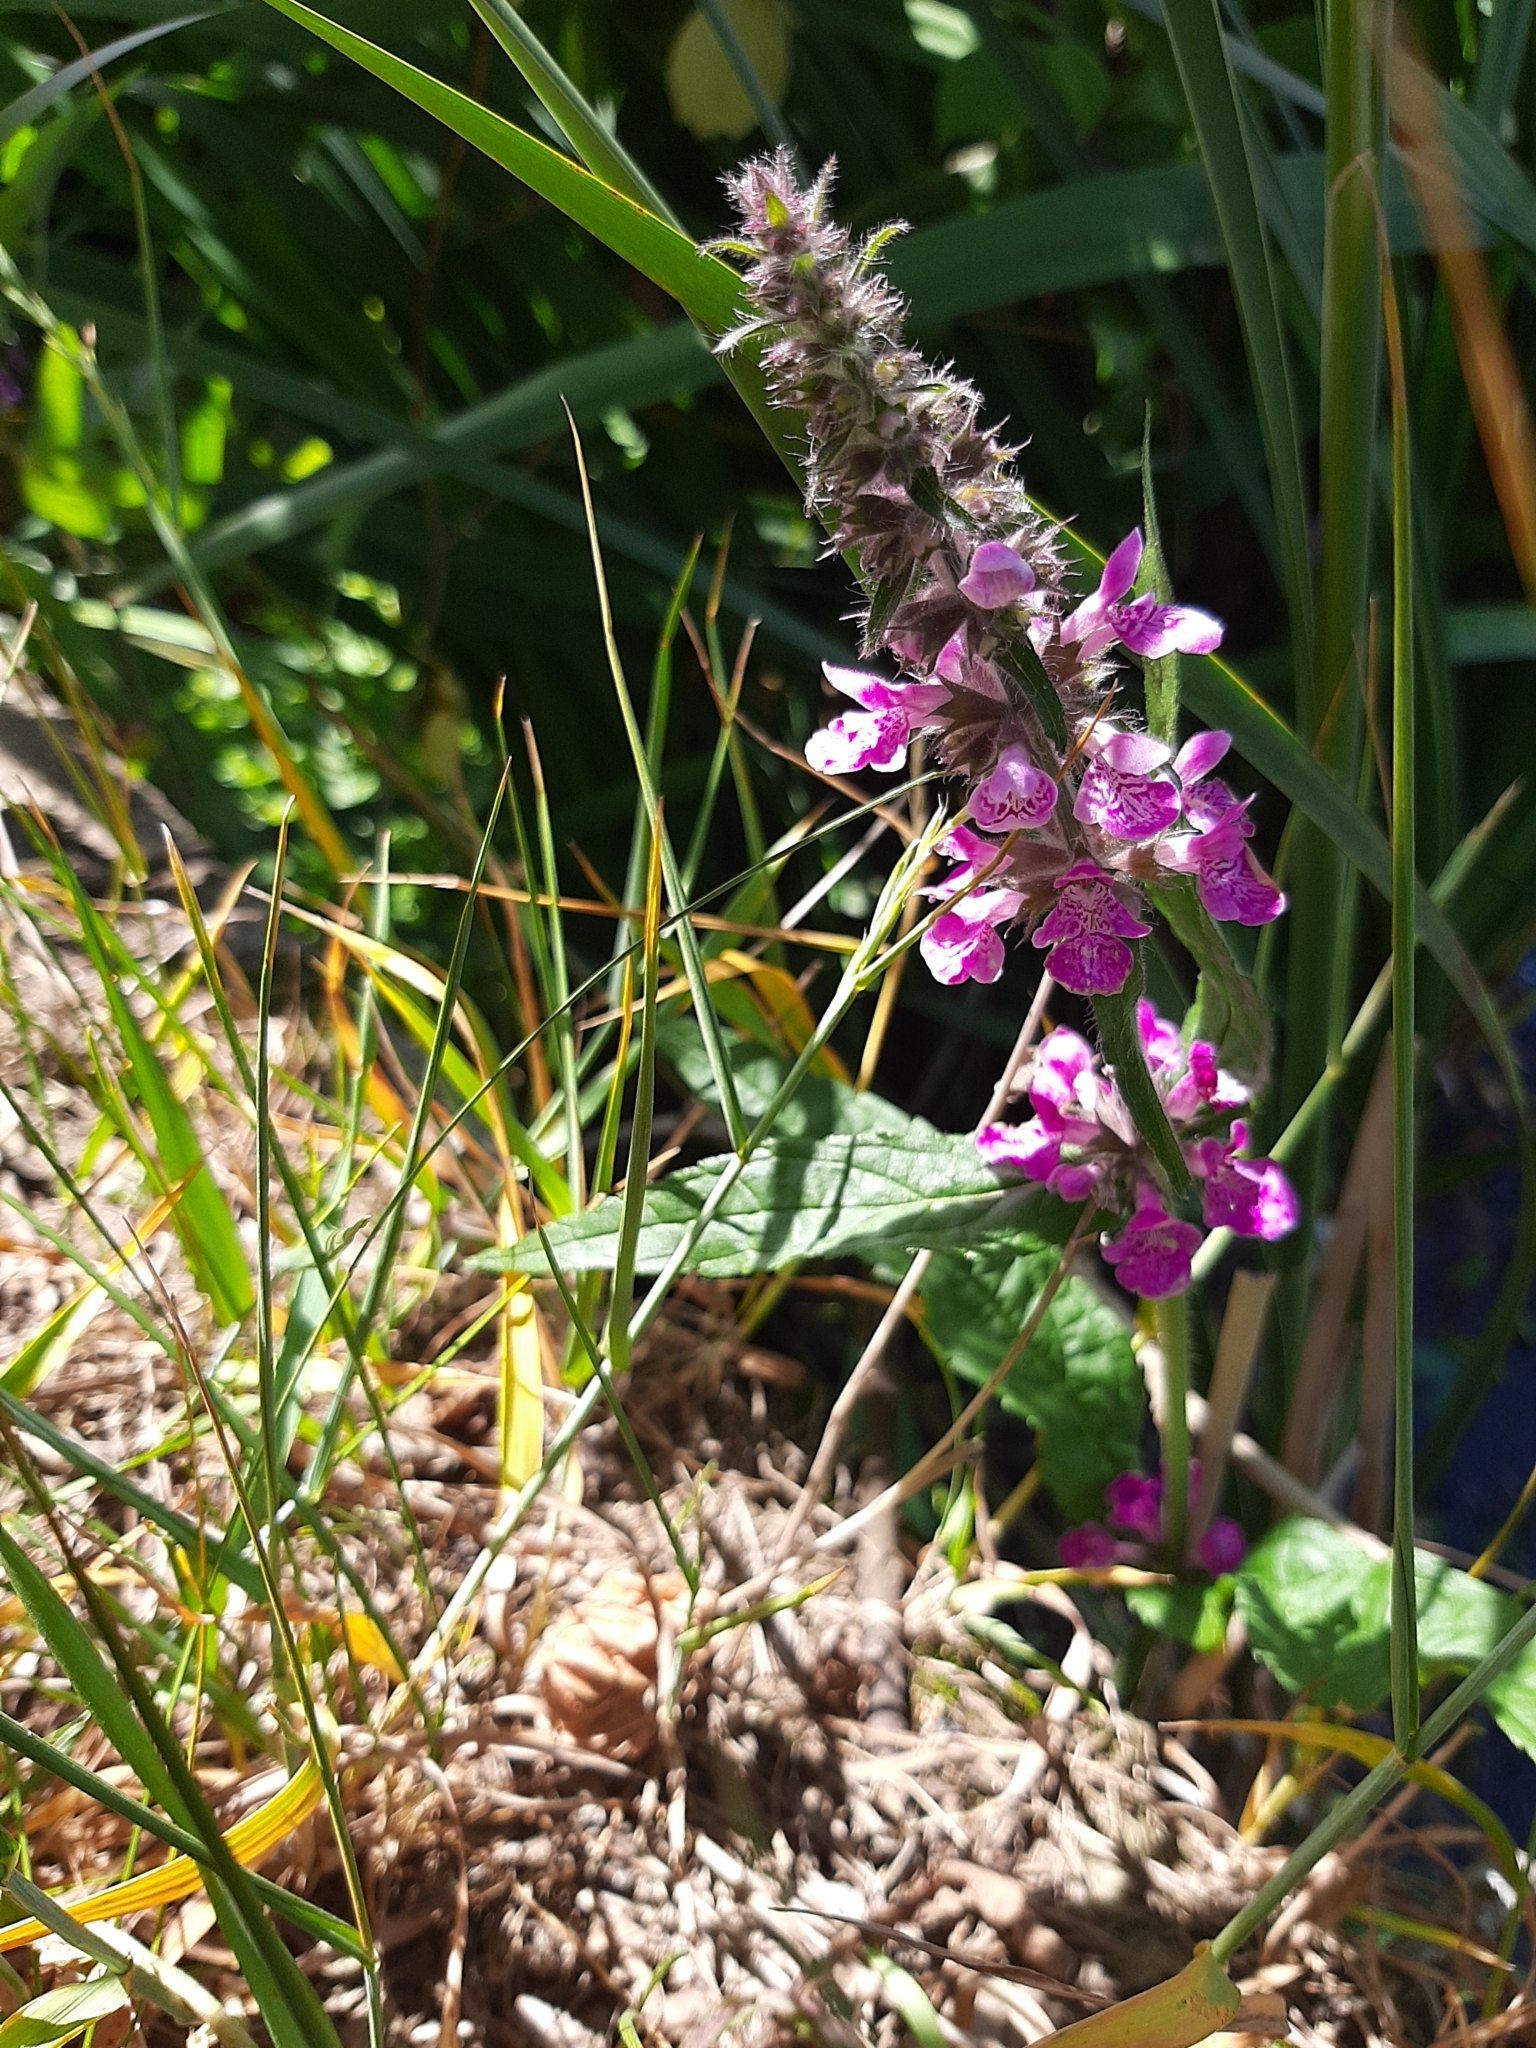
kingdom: Plantae
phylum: Tracheophyta
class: Magnoliopsida
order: Lamiales
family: Lamiaceae
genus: Stachys
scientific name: Stachys palustris
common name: Marsh woundwort
